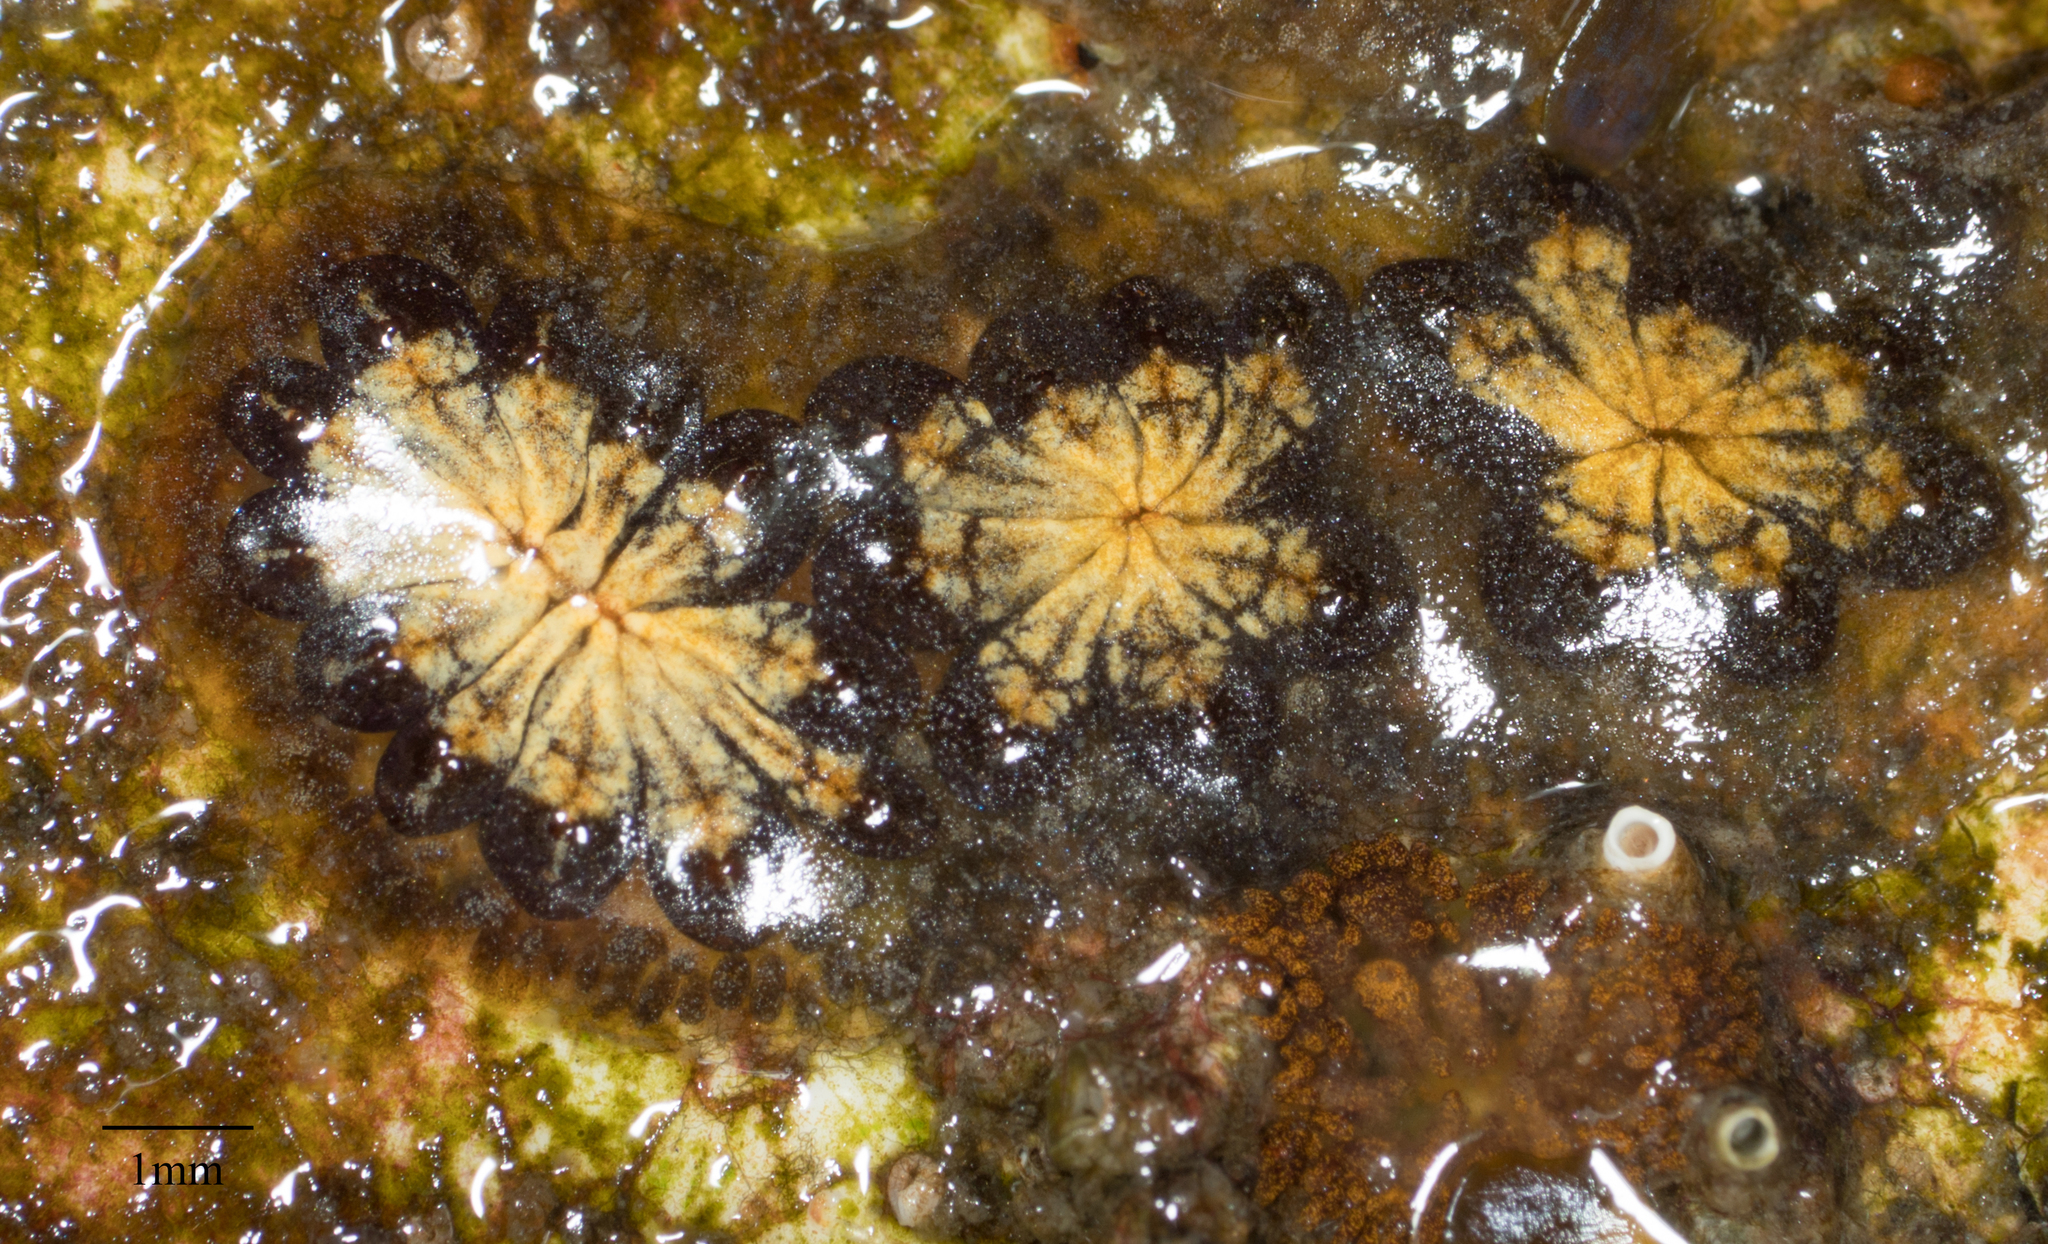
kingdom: Animalia
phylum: Chordata
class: Ascidiacea
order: Stolidobranchia
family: Styelidae
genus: Botryllus
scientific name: Botryllus schlosseri
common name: Golden star tunicate
